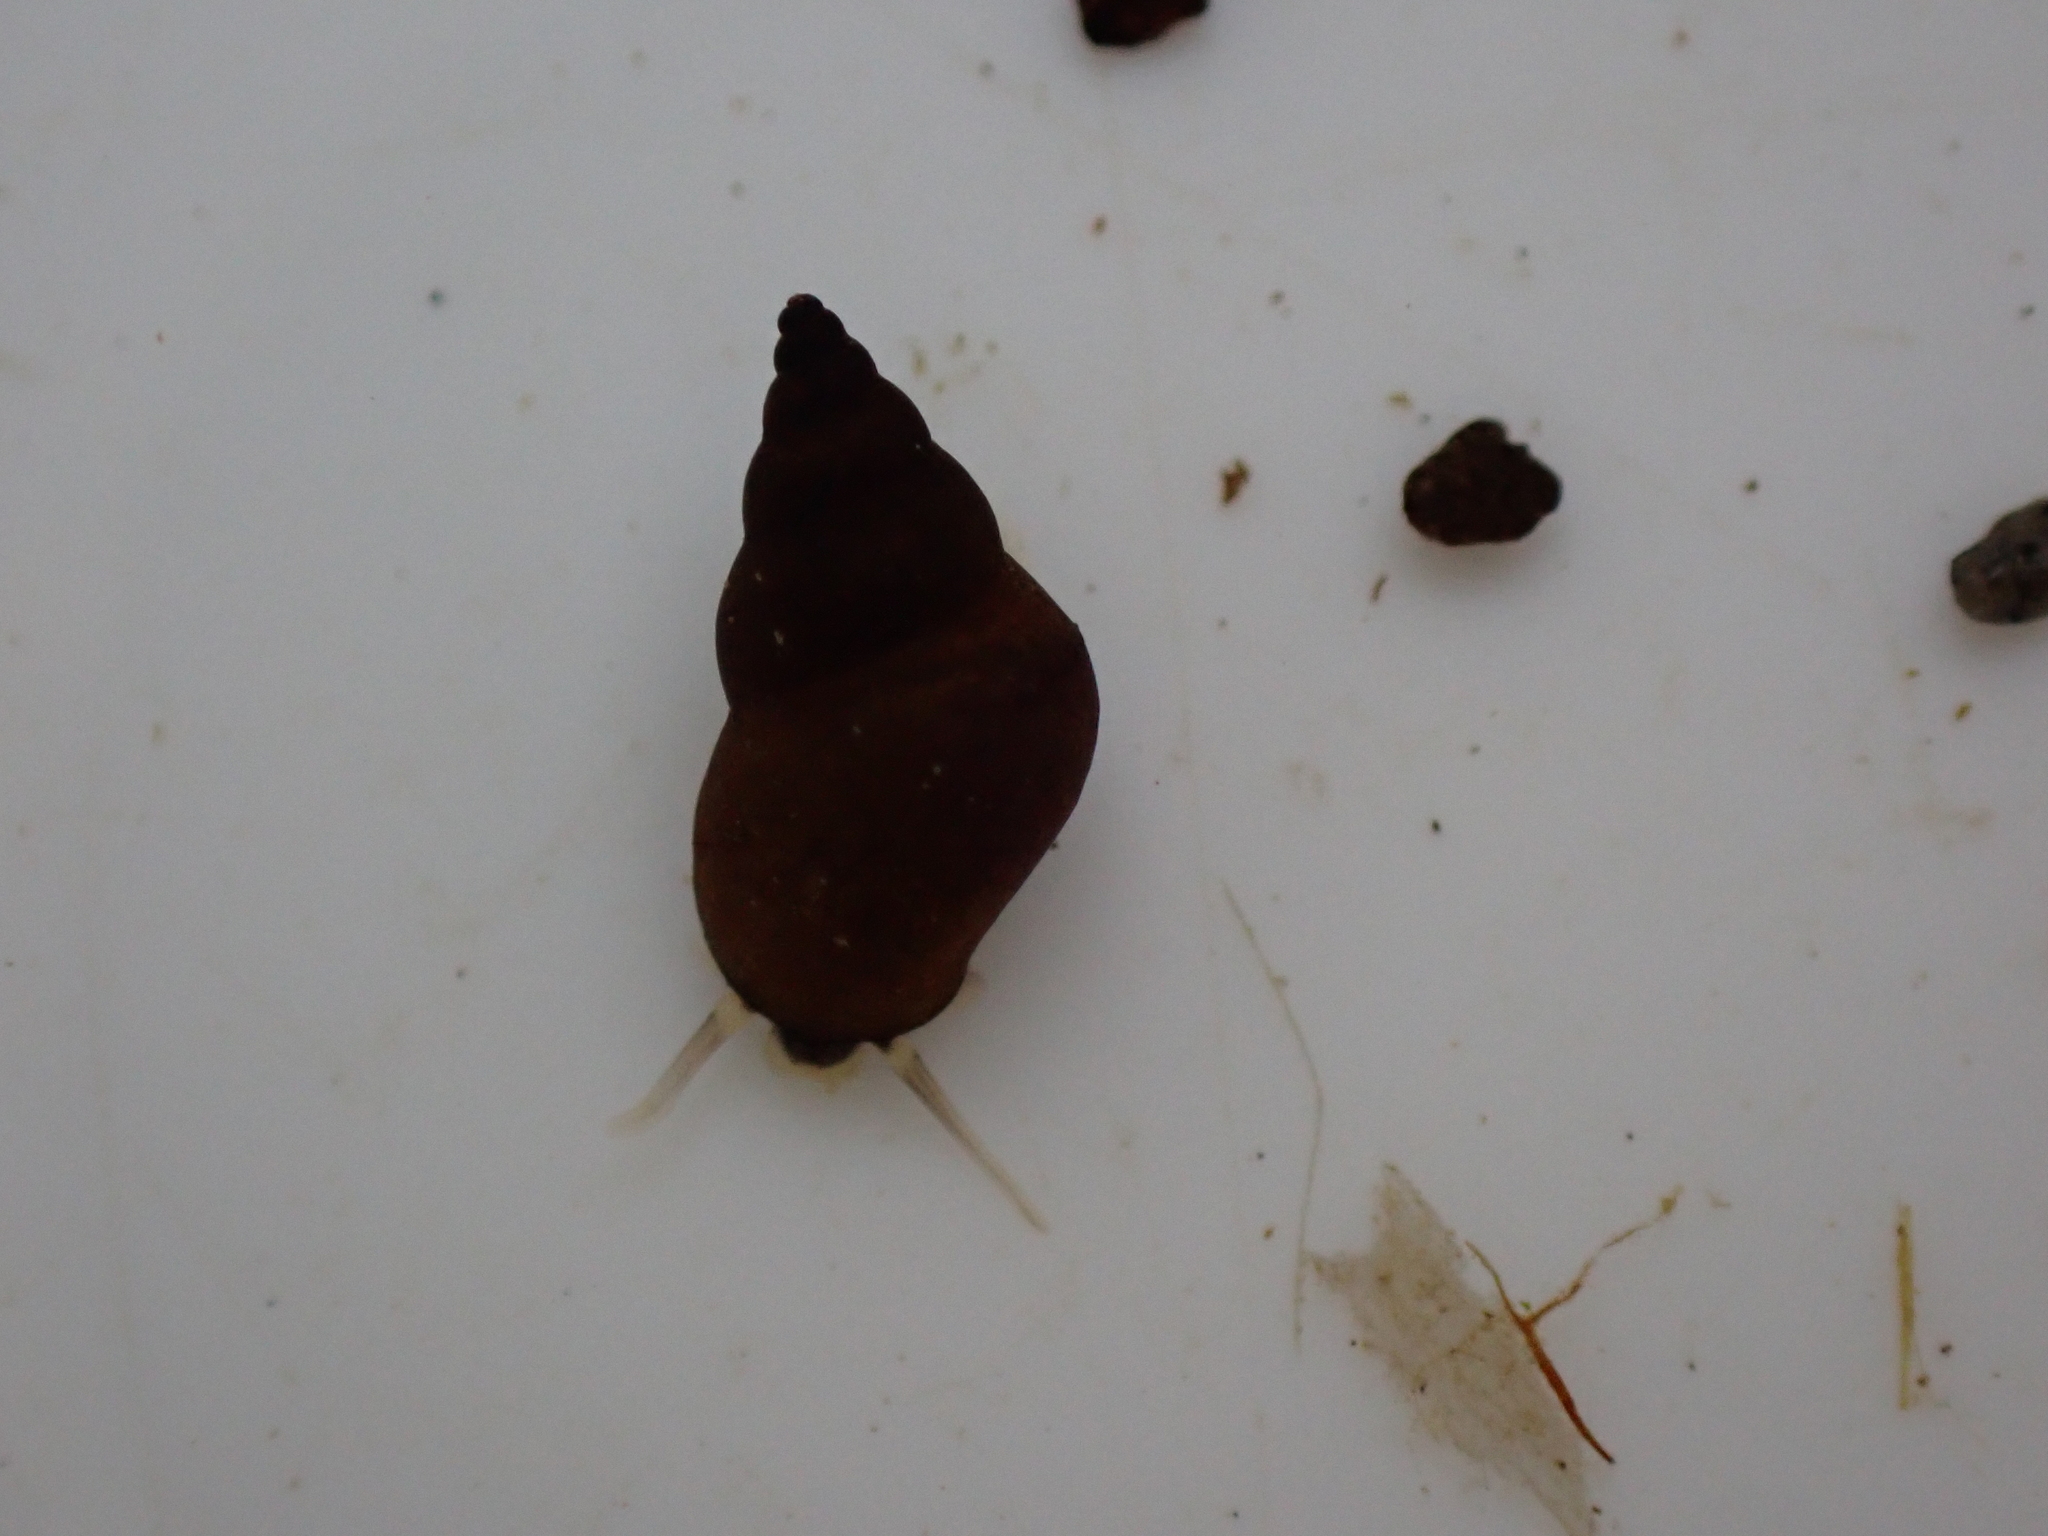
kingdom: Animalia
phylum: Mollusca
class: Gastropoda
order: Littorinimorpha
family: Tateidae
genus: Potamopyrgus
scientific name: Potamopyrgus antipodarum
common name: Jenkins' spire snail
